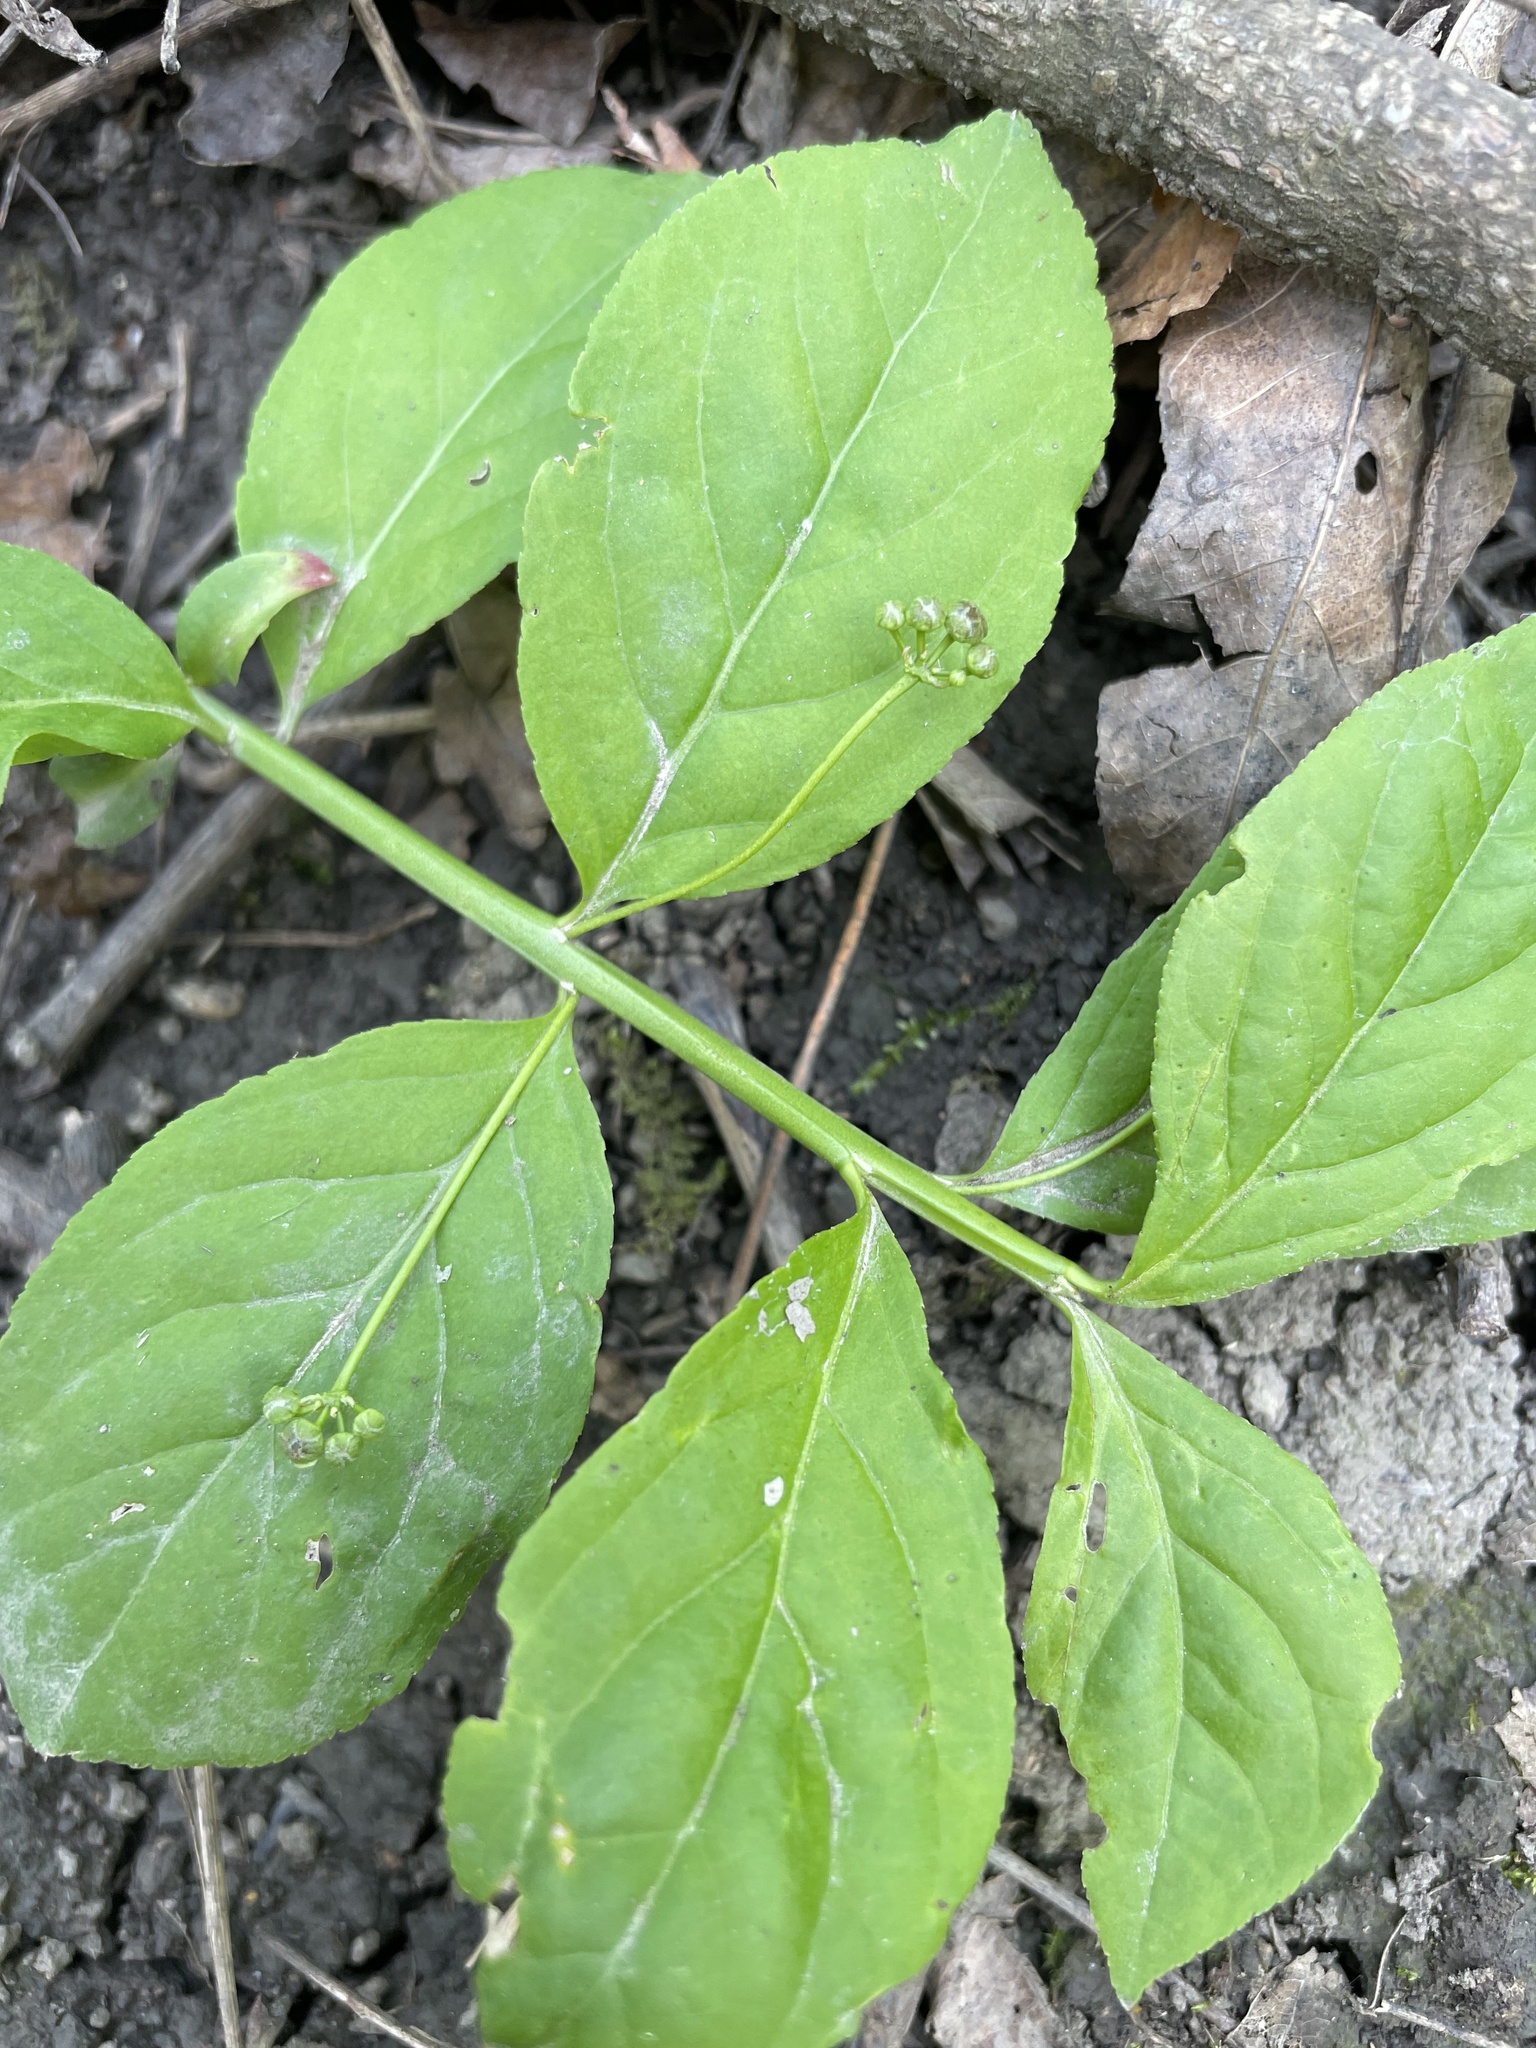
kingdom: Plantae
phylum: Tracheophyta
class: Magnoliopsida
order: Celastrales
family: Celastraceae
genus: Euonymus
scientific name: Euonymus obovatus
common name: Running strawberry-bush
